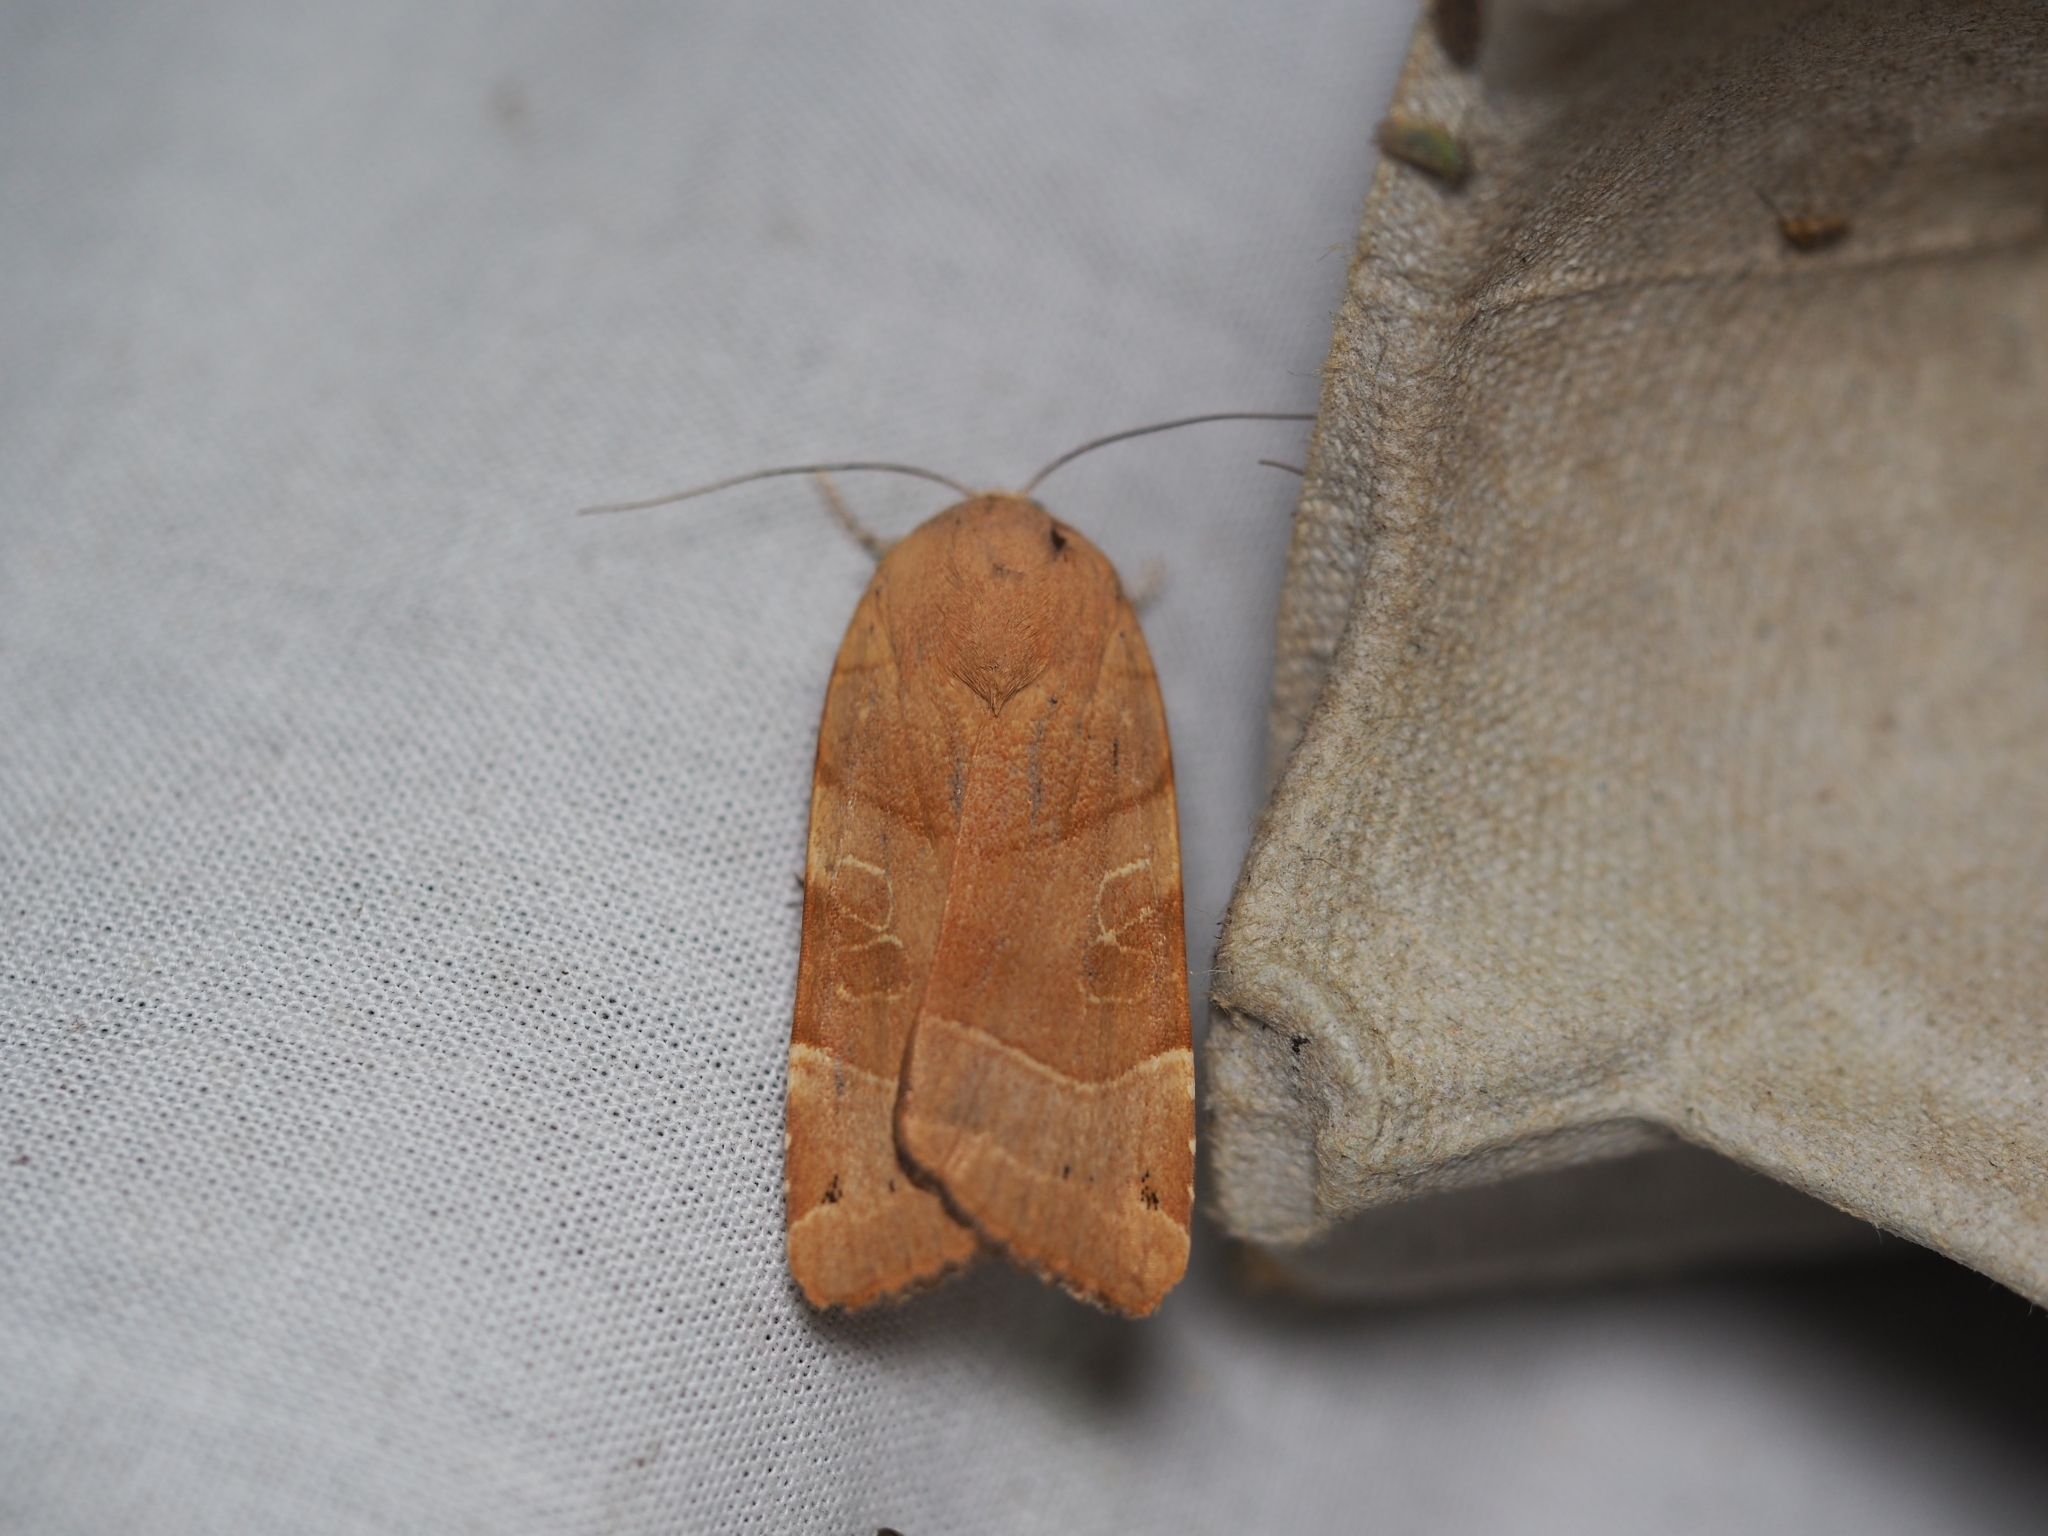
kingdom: Animalia
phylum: Arthropoda
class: Insecta
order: Lepidoptera
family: Noctuidae
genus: Noctua
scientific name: Noctua fimbriata
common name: Broad-bordered yellow underwing
